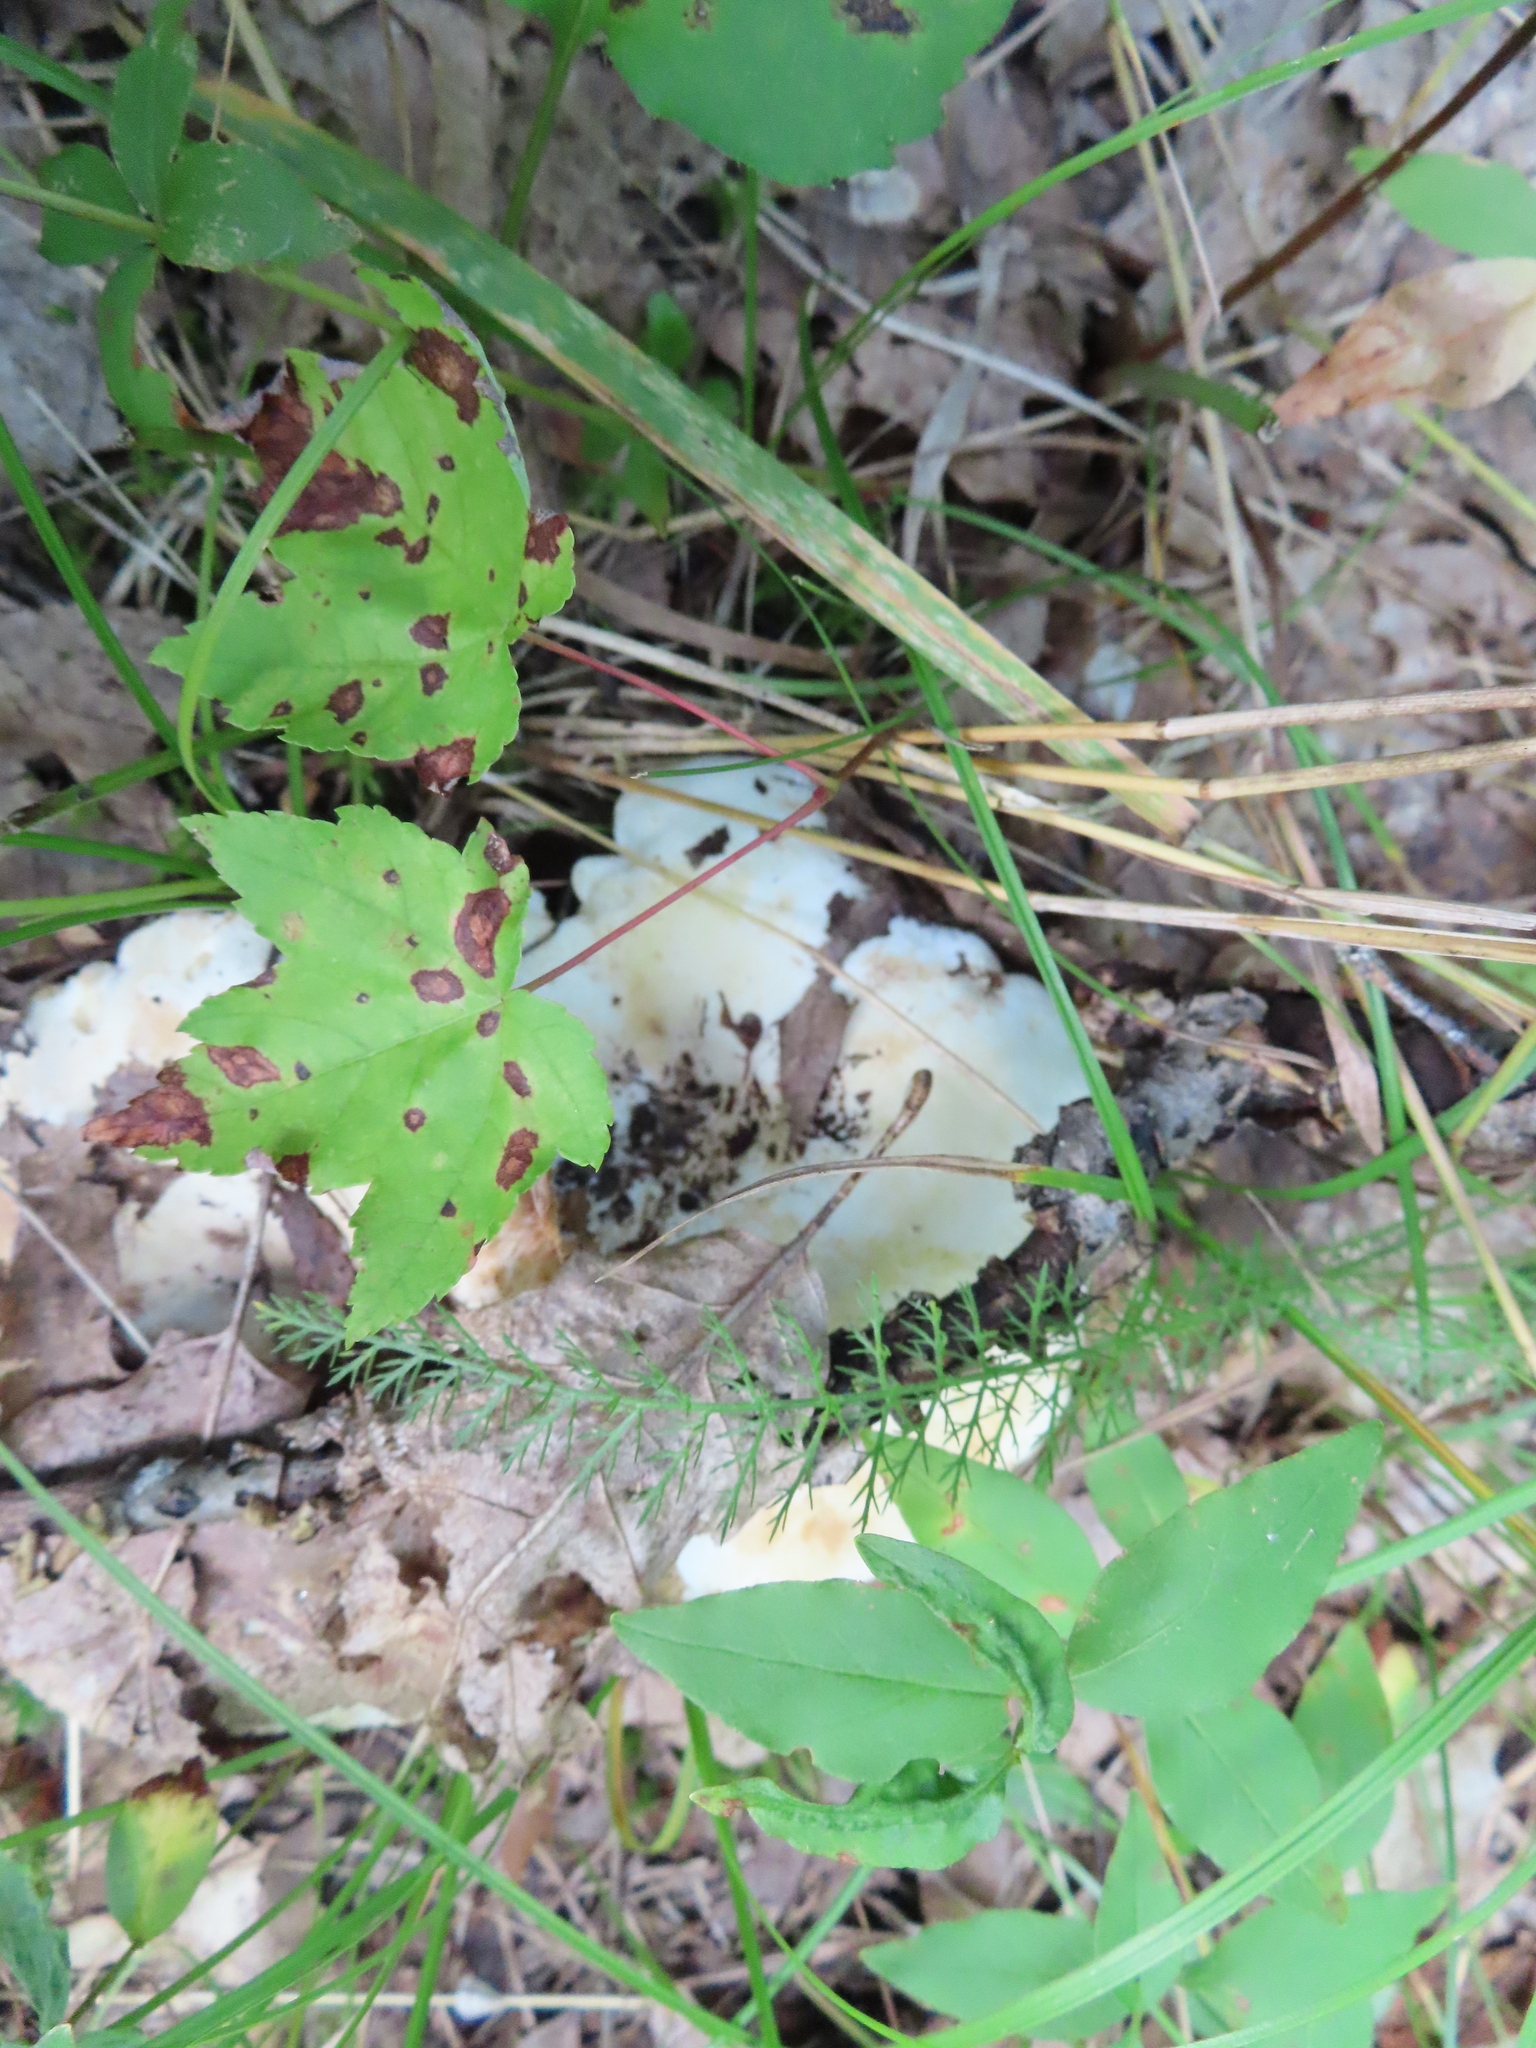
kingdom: Plantae
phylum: Tracheophyta
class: Magnoliopsida
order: Sapindales
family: Sapindaceae
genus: Acer
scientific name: Acer rubrum
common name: Red maple
